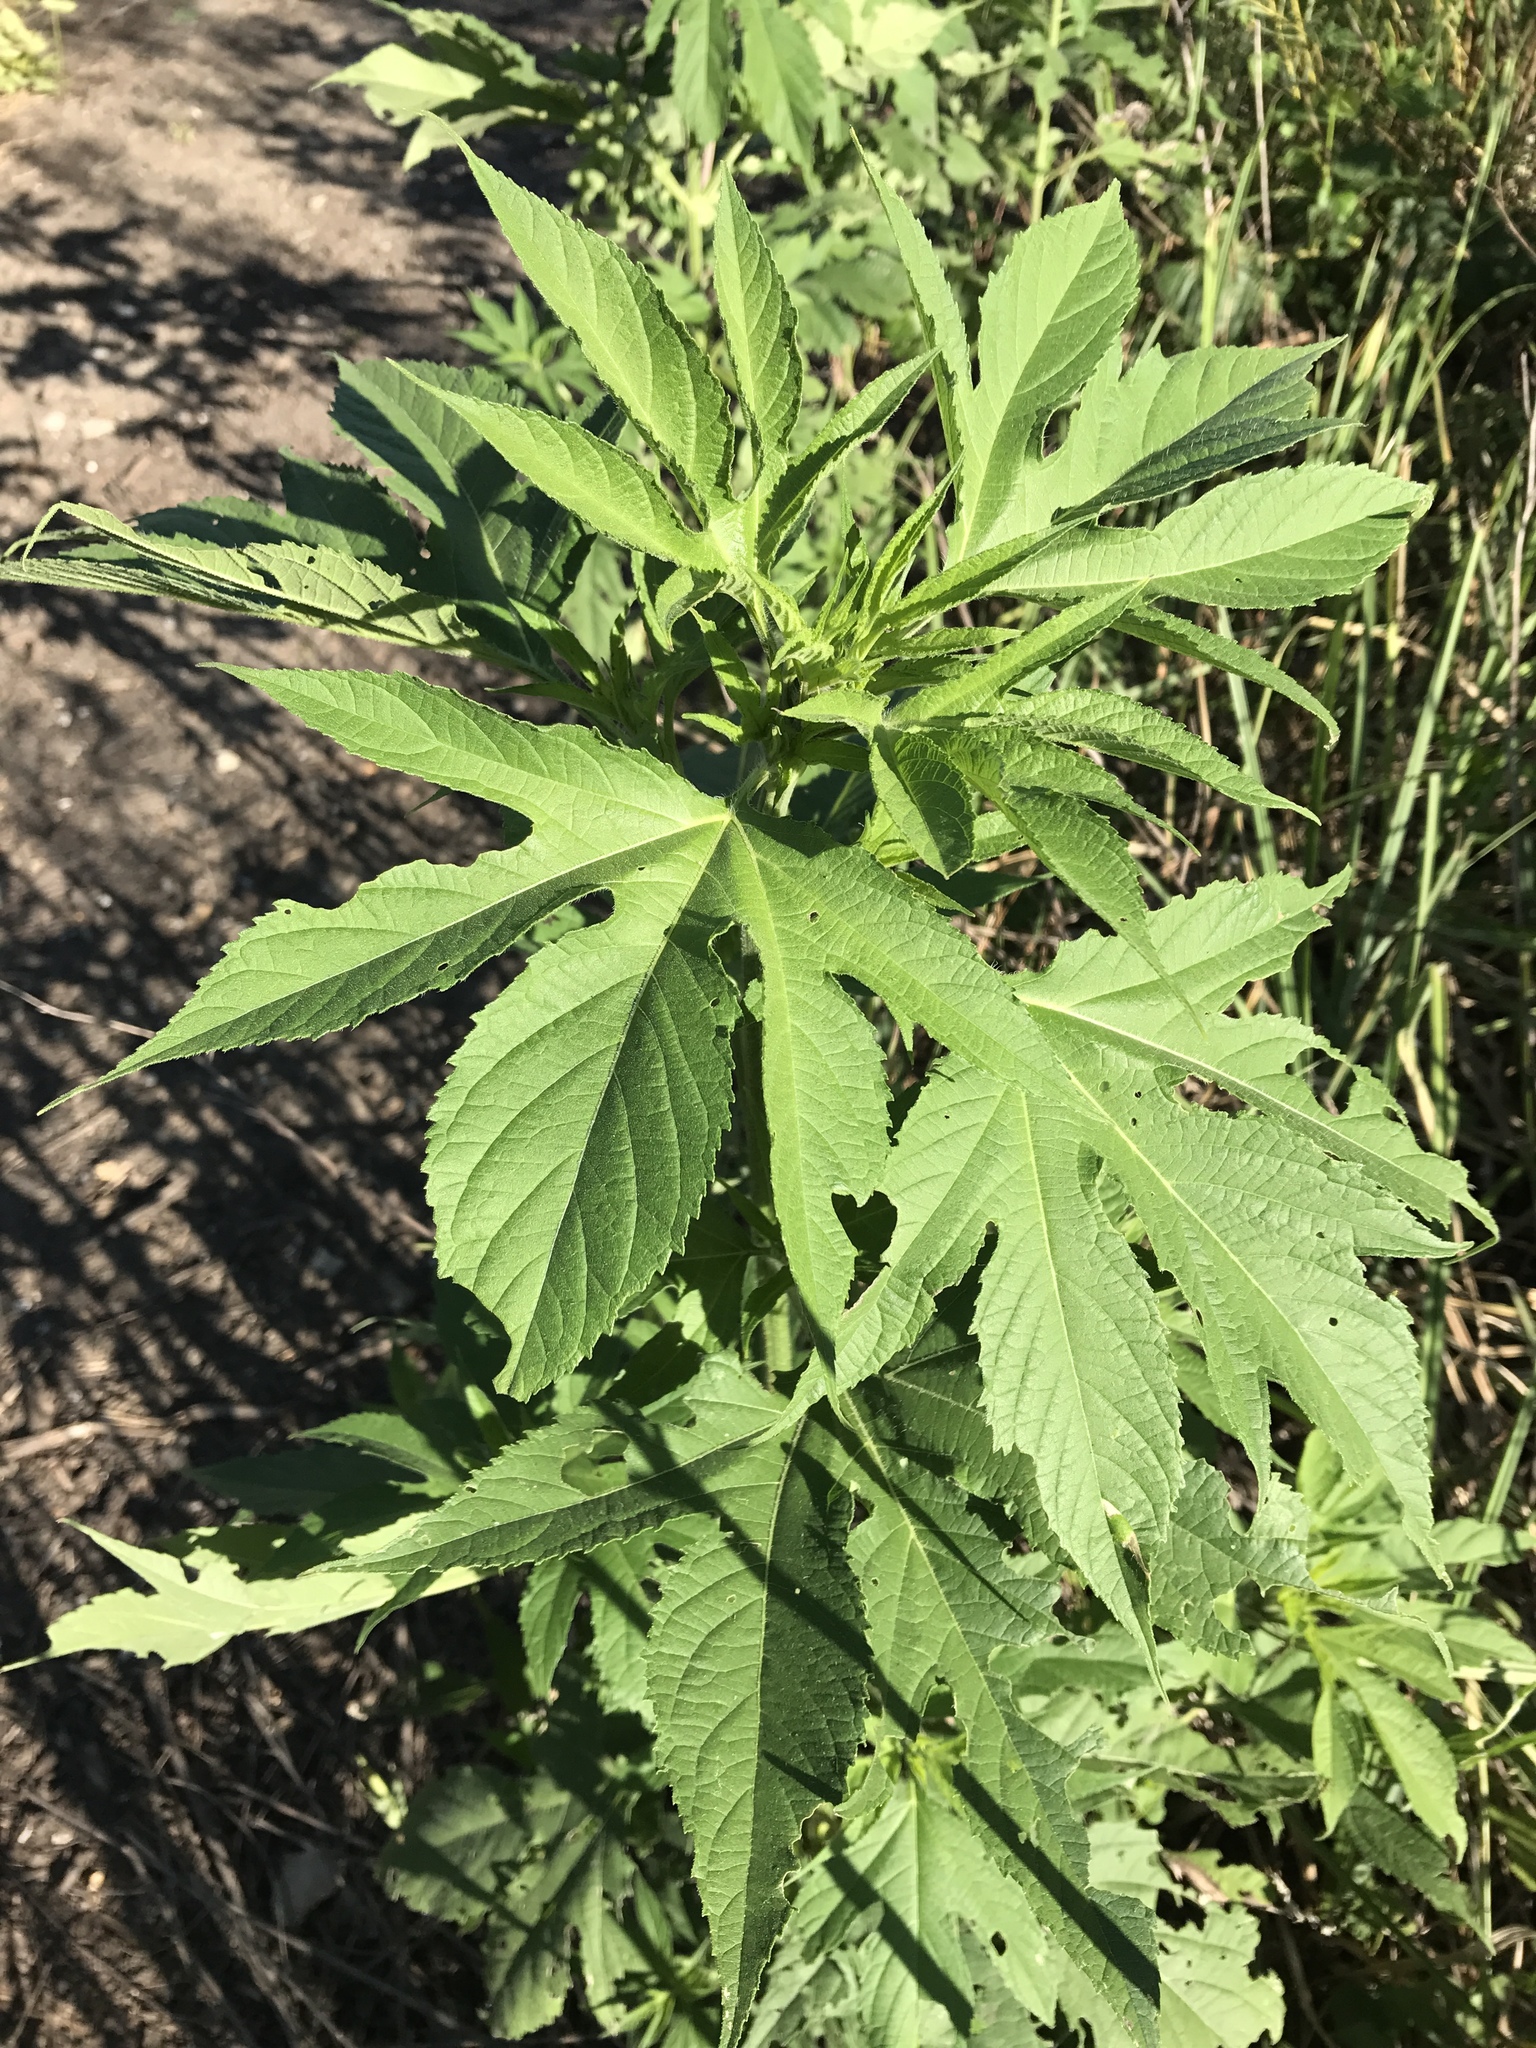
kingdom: Plantae
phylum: Tracheophyta
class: Magnoliopsida
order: Asterales
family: Asteraceae
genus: Ambrosia
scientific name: Ambrosia trifida
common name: Giant ragweed
